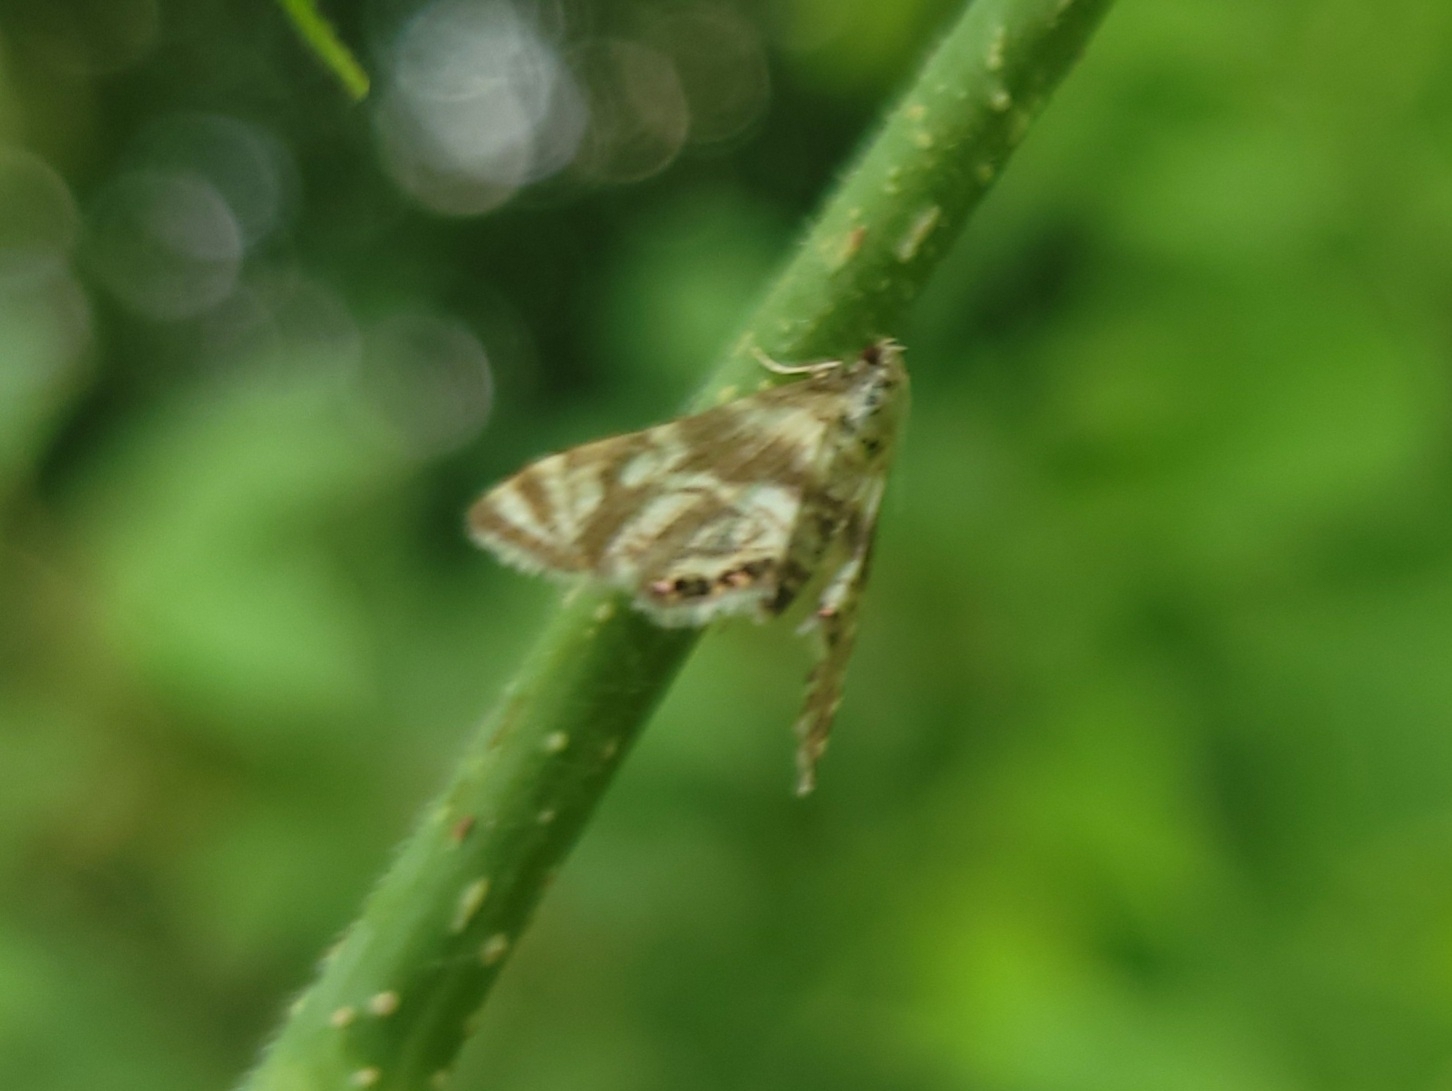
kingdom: Animalia
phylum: Arthropoda
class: Insecta
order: Lepidoptera
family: Crambidae
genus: Petrophila
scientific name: Petrophila canadensis
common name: Canadian petrophila
